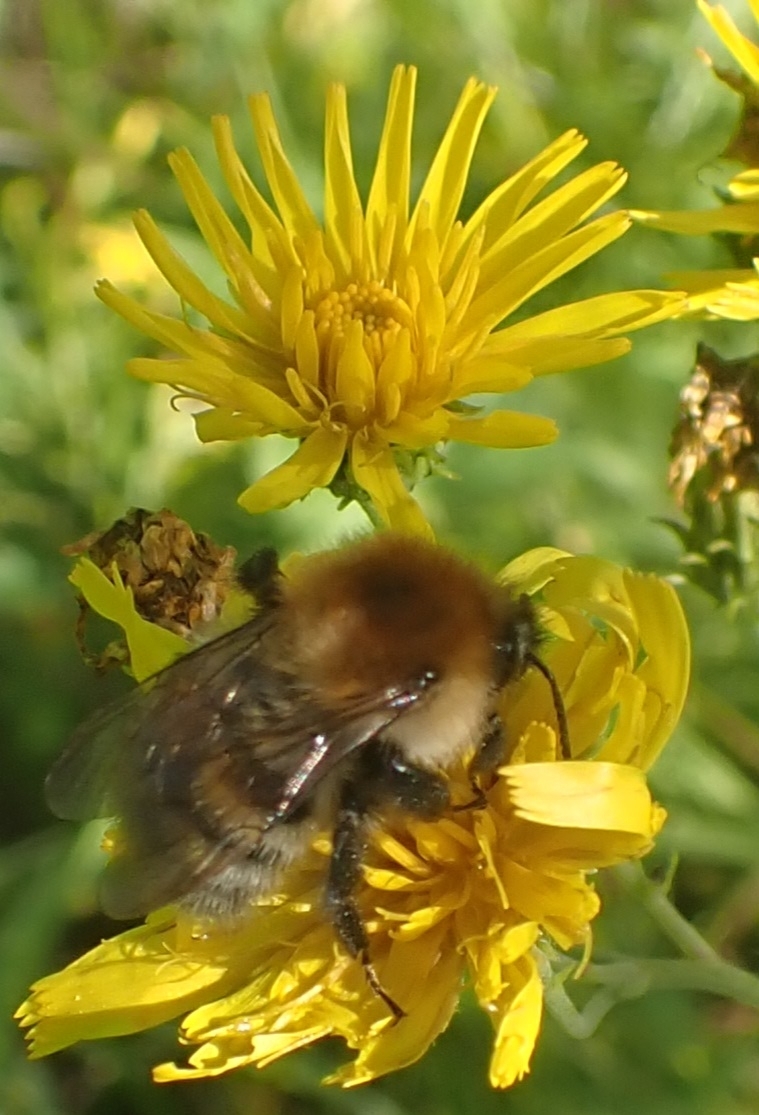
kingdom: Animalia
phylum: Arthropoda
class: Insecta
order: Hymenoptera
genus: Thoracobombus
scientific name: Thoracobombus
